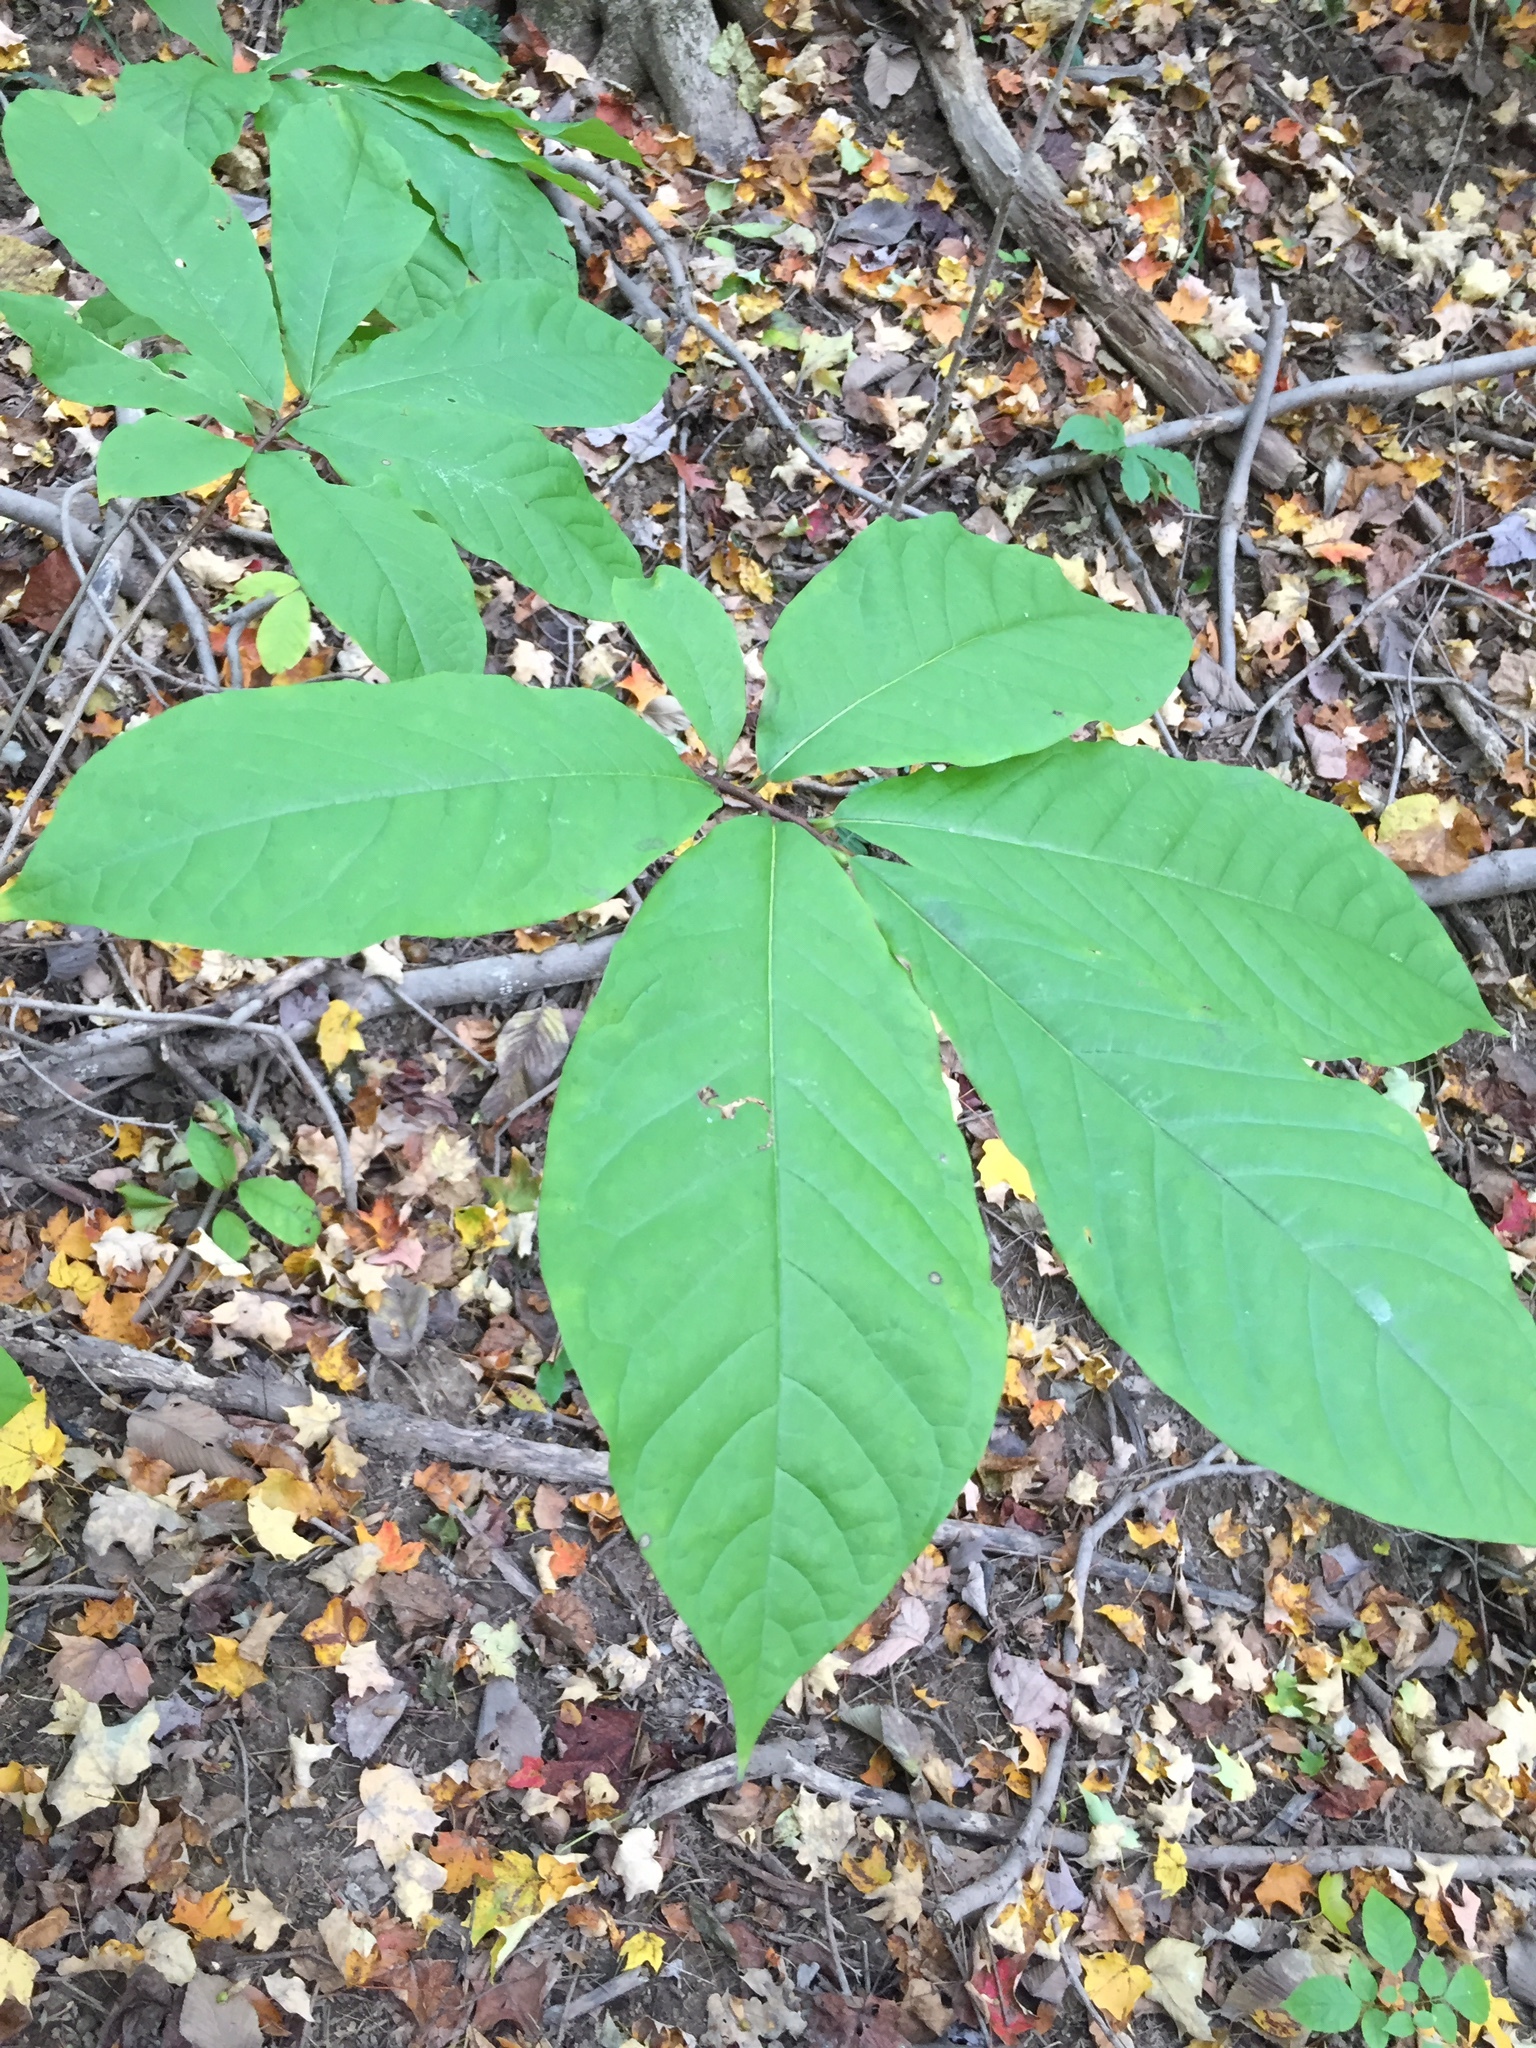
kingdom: Plantae
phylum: Tracheophyta
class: Magnoliopsida
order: Magnoliales
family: Annonaceae
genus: Asimina
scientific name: Asimina triloba
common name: Dog-banana
